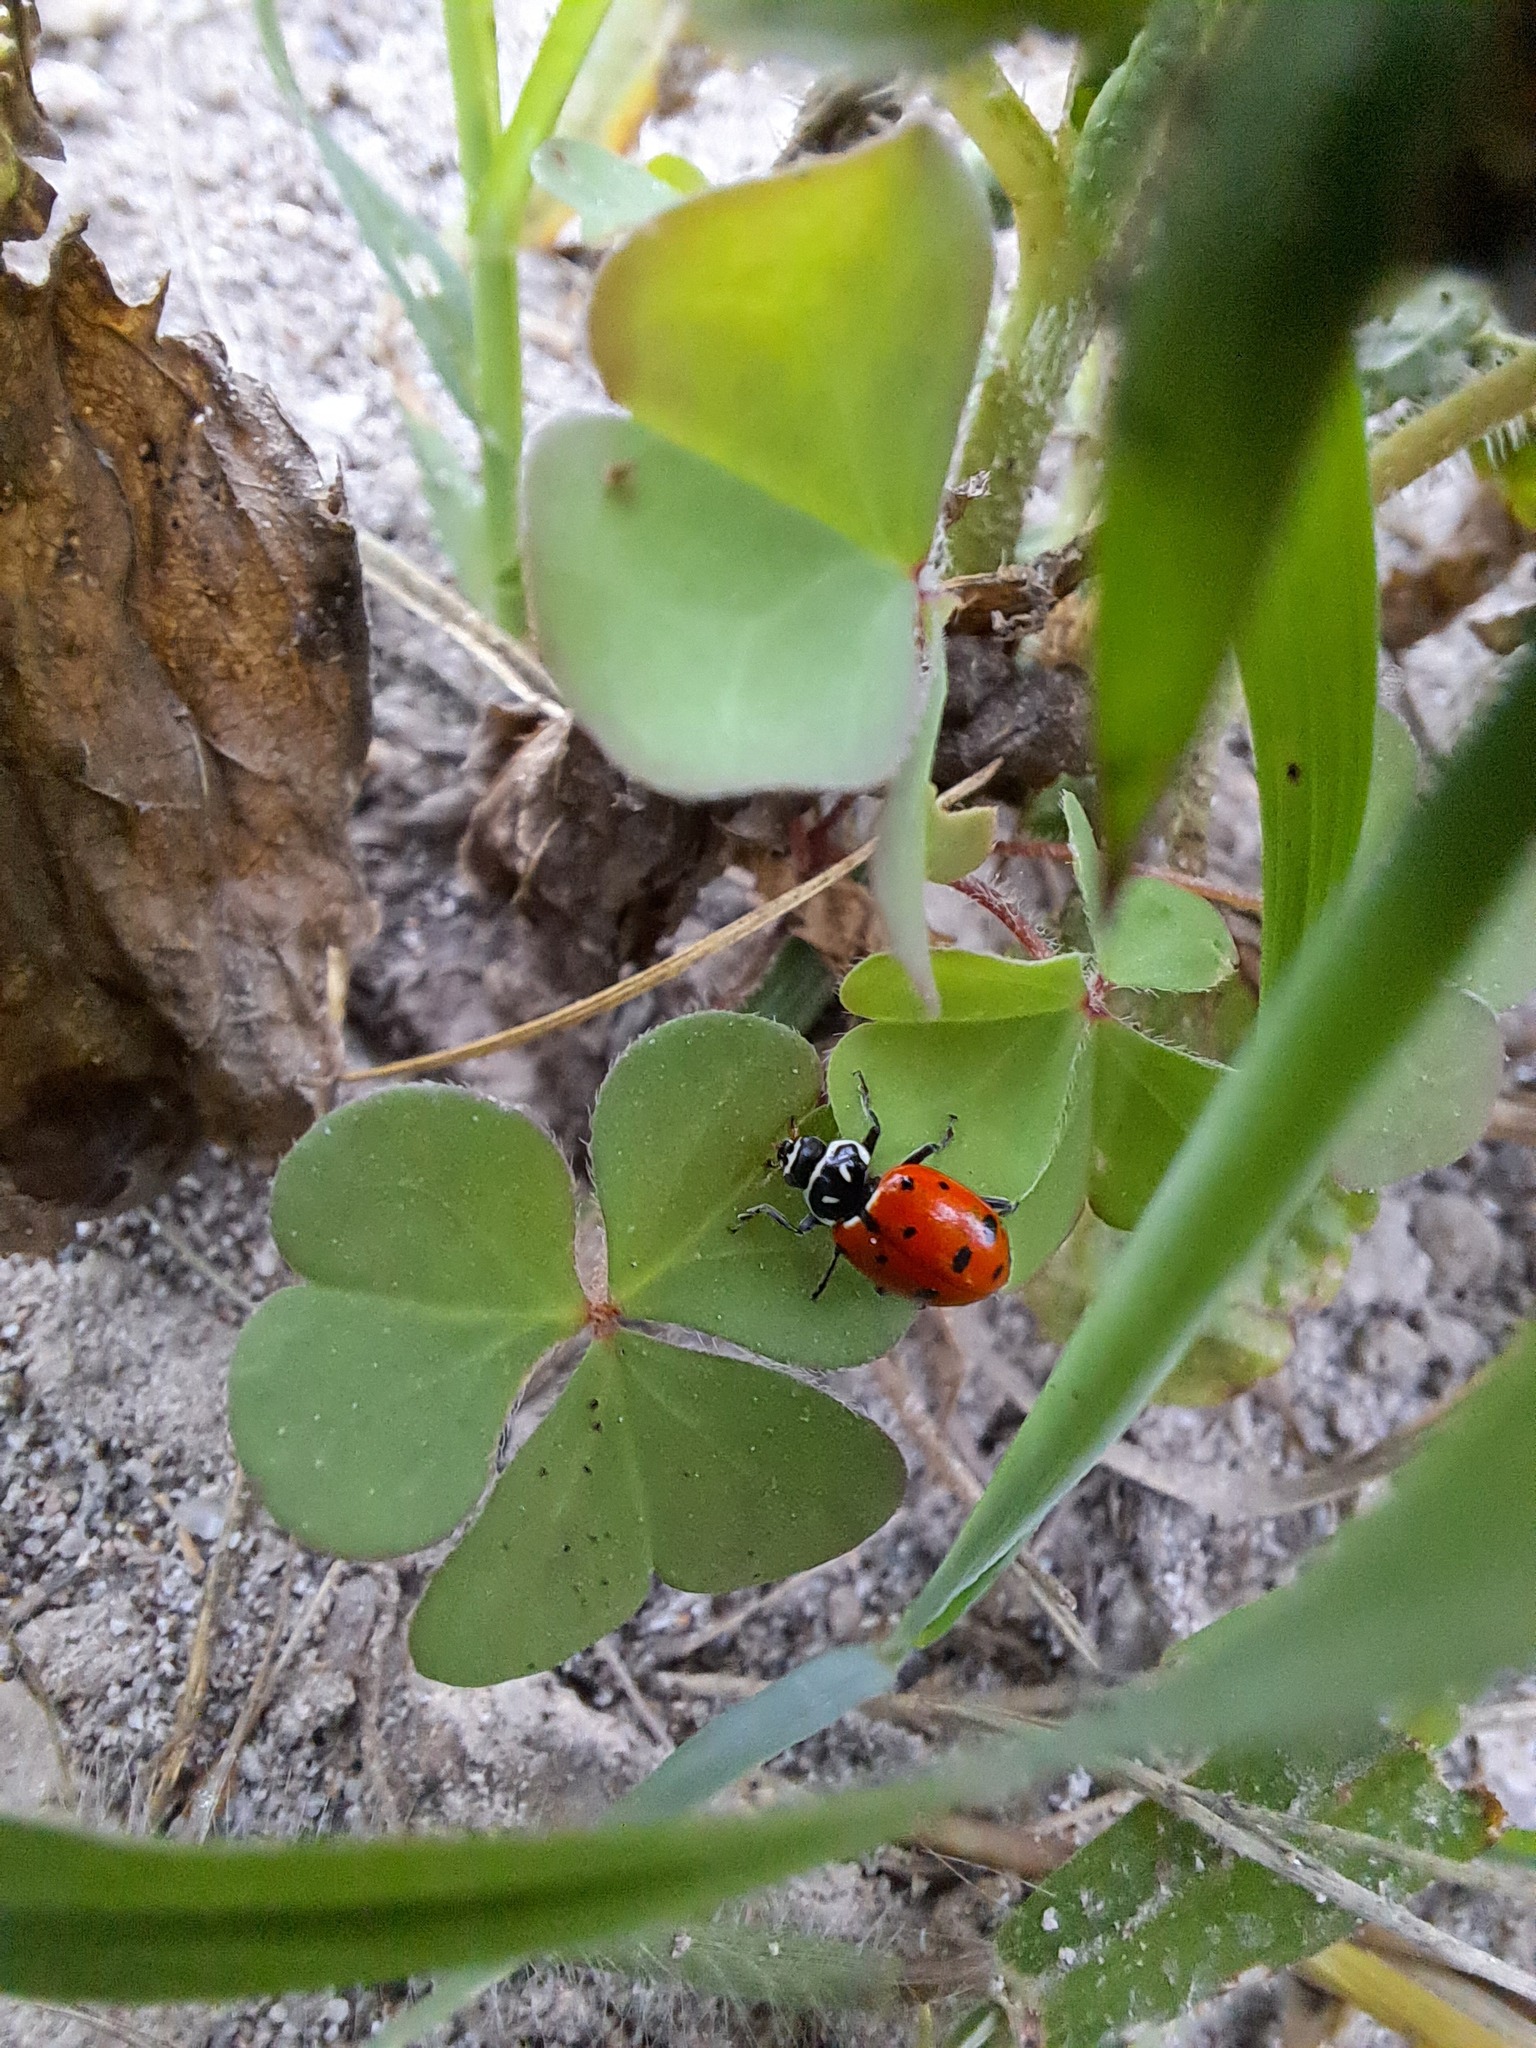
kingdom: Animalia
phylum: Arthropoda
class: Insecta
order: Coleoptera
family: Coccinellidae
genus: Hippodamia
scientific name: Hippodamia convergens
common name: Convergent lady beetle
